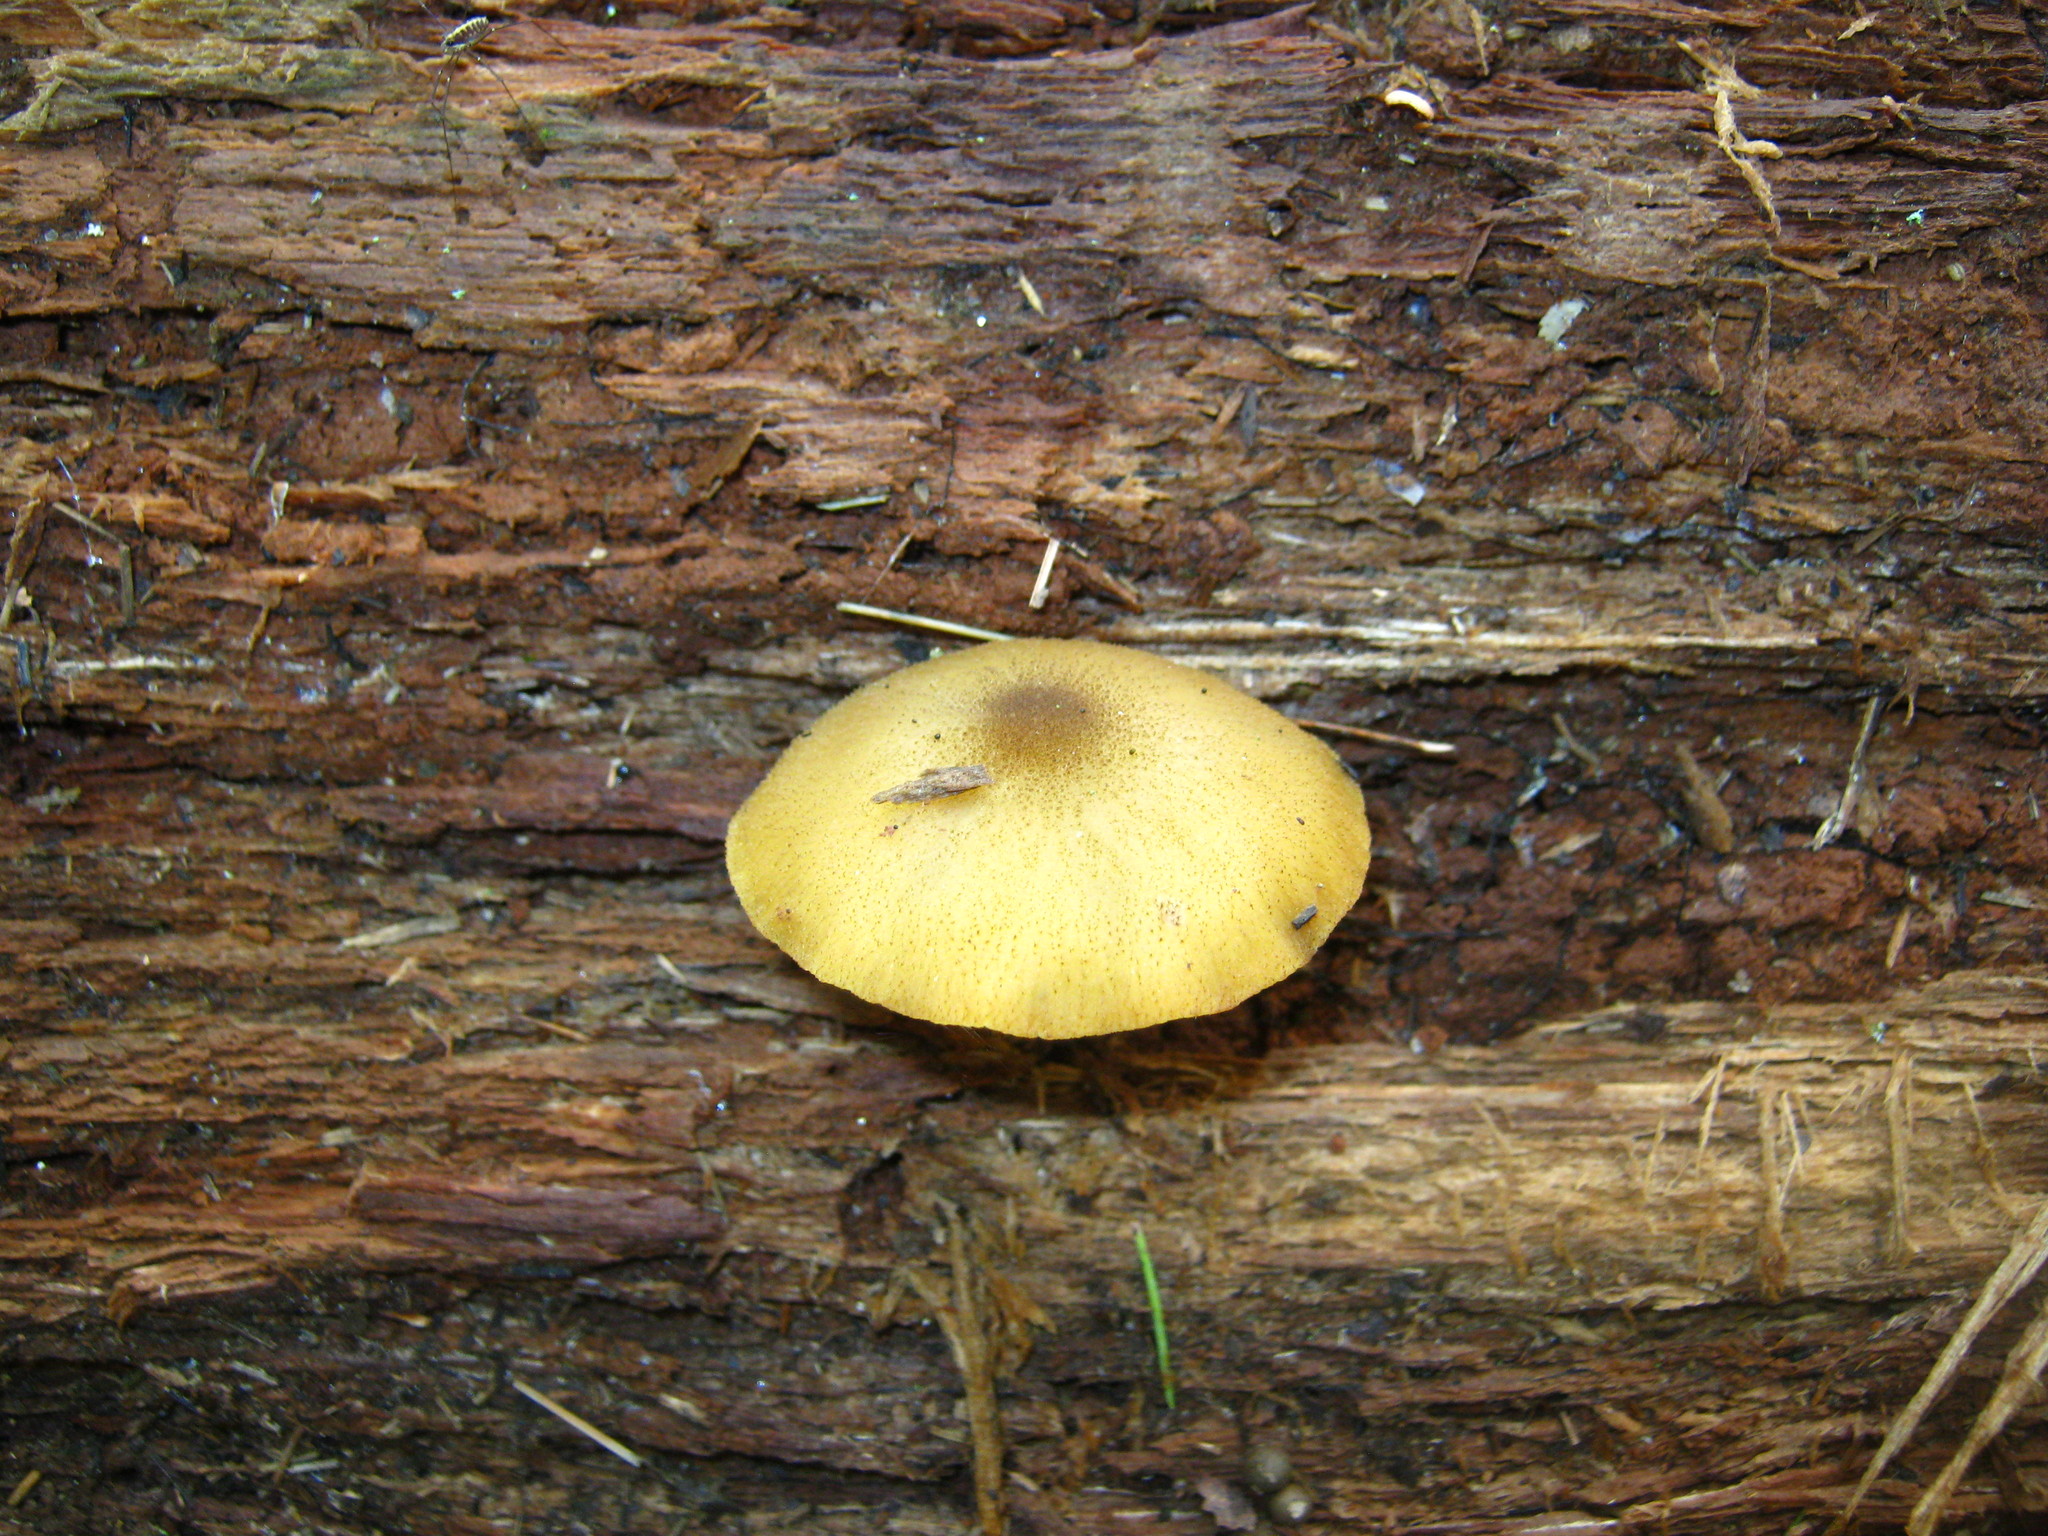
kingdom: Fungi
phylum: Basidiomycota
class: Agaricomycetes
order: Agaricales
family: Tricholomataceae
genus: Tricholomopsis
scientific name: Tricholomopsis decora
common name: Prunes and custard
